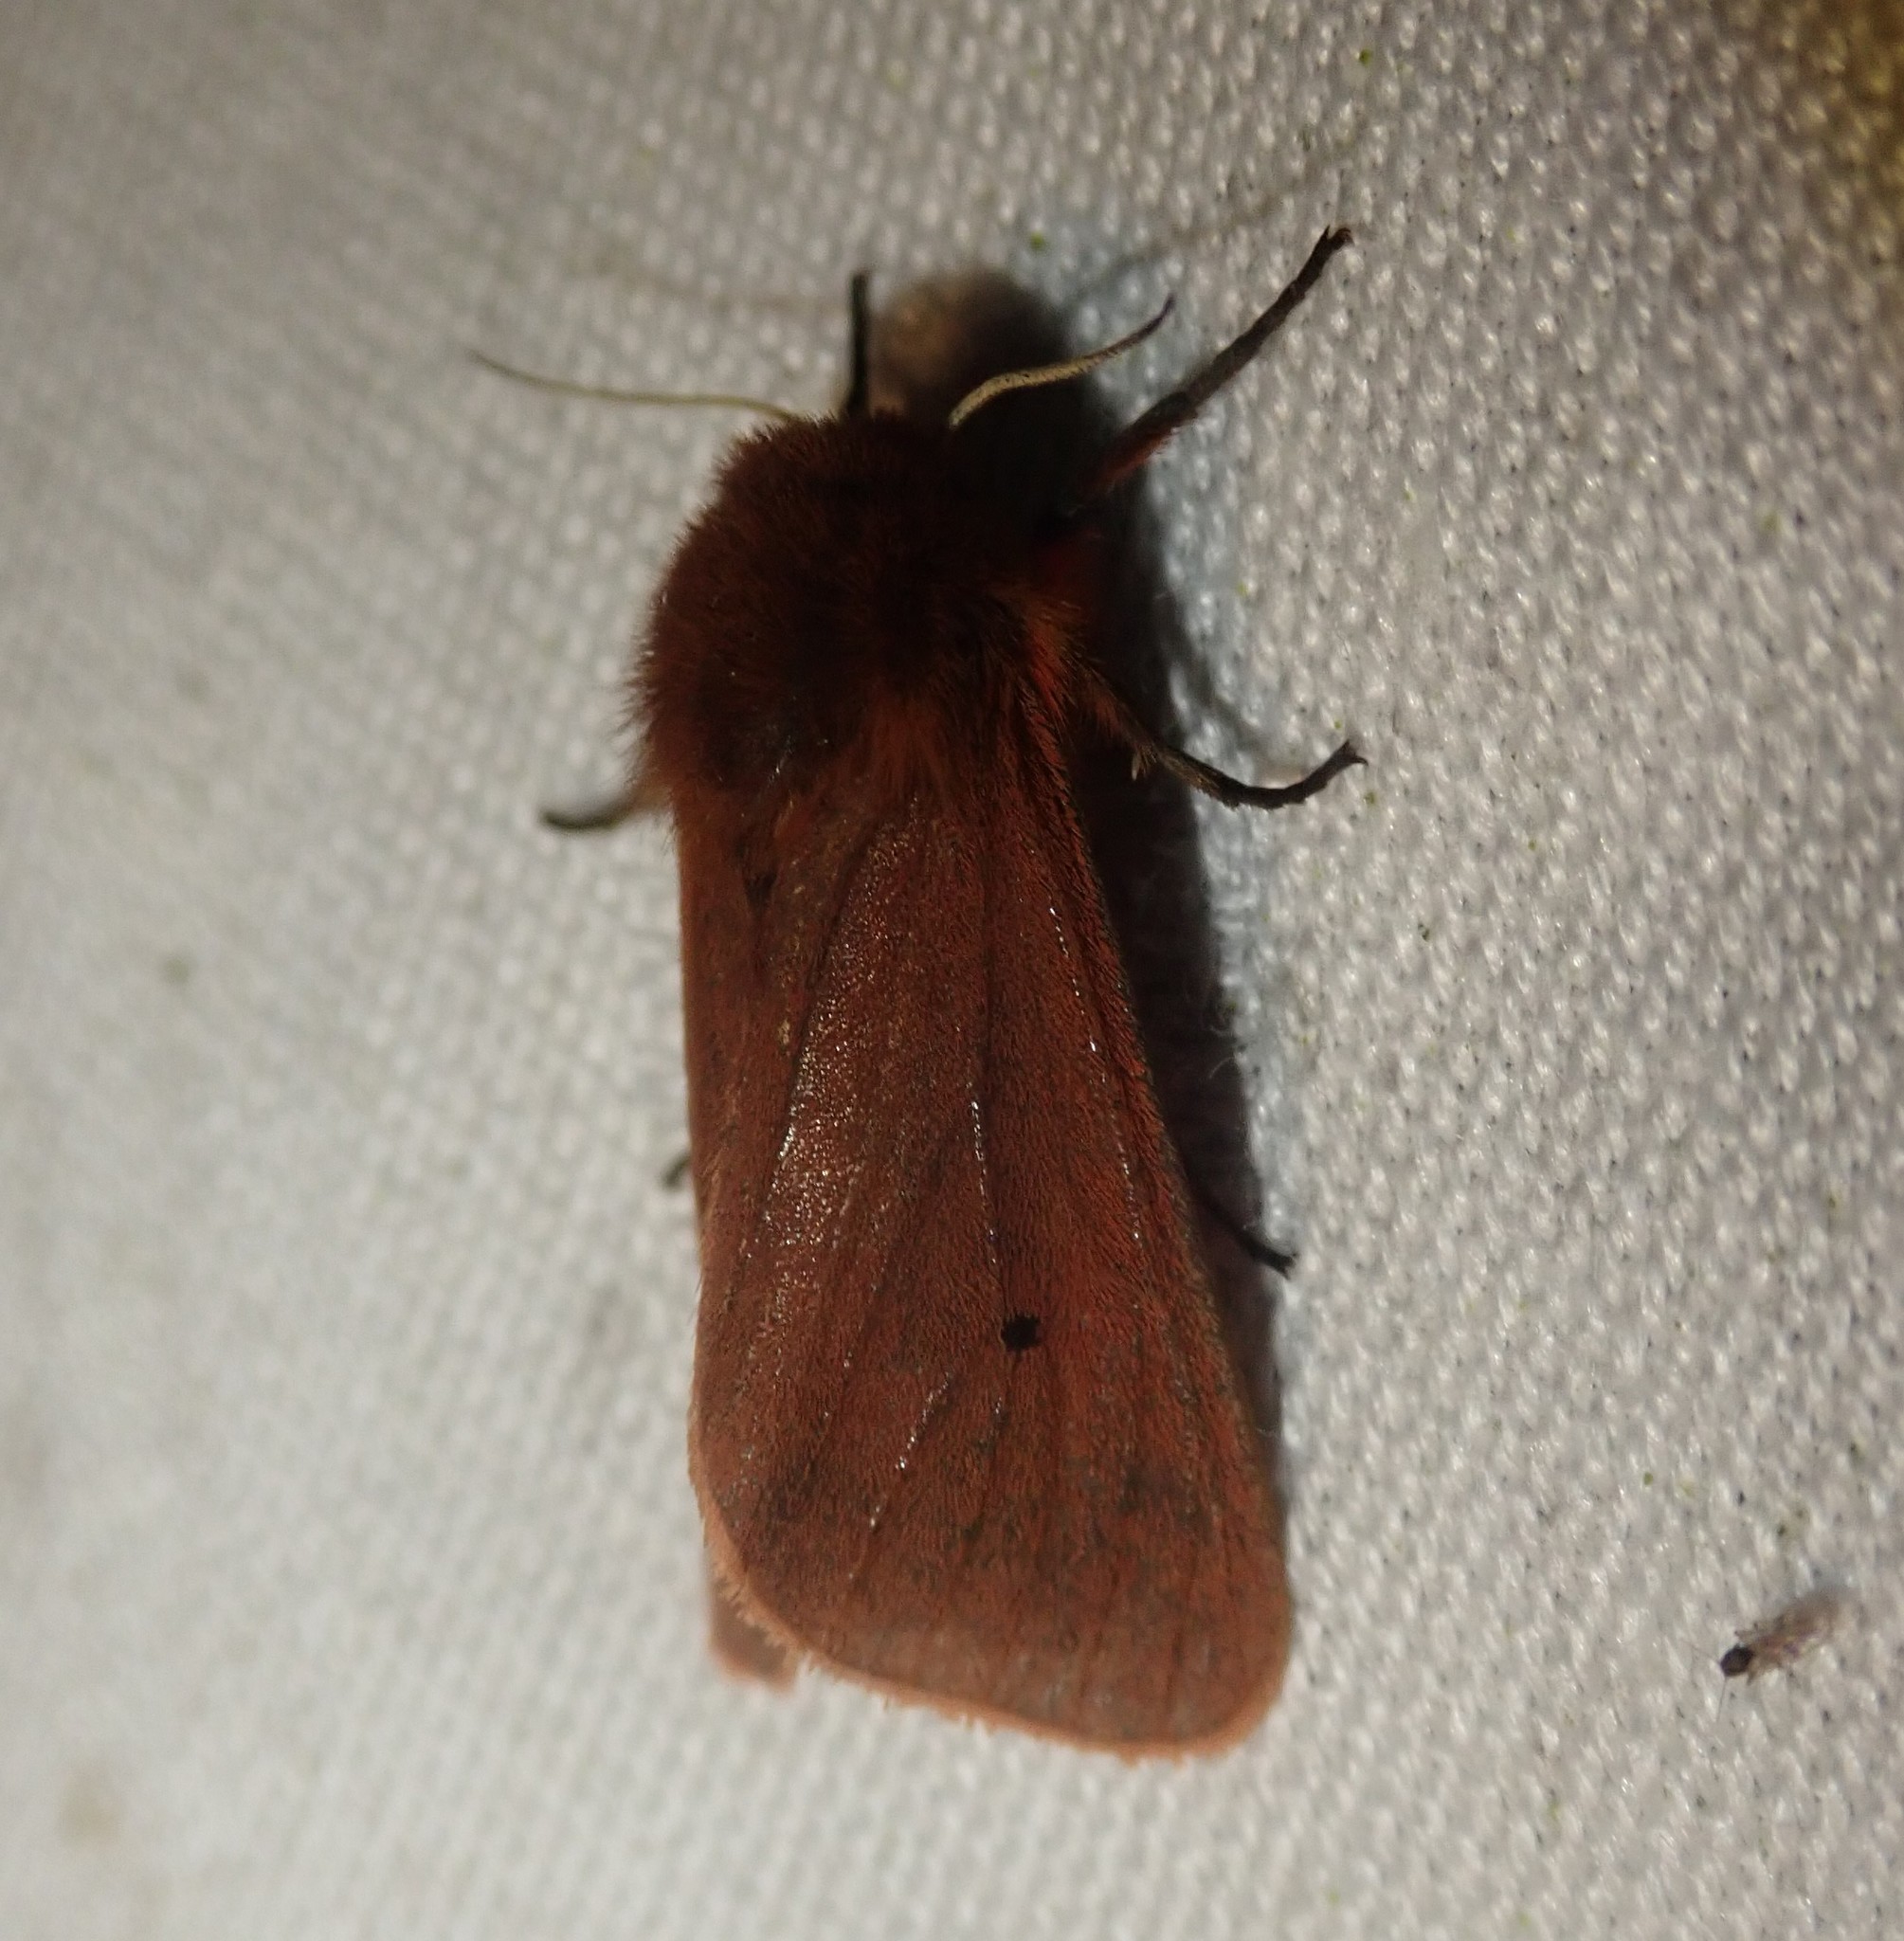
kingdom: Animalia
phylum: Arthropoda
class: Insecta
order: Lepidoptera
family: Erebidae
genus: Phragmatobia
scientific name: Phragmatobia fuliginosa
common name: Ruby tiger
